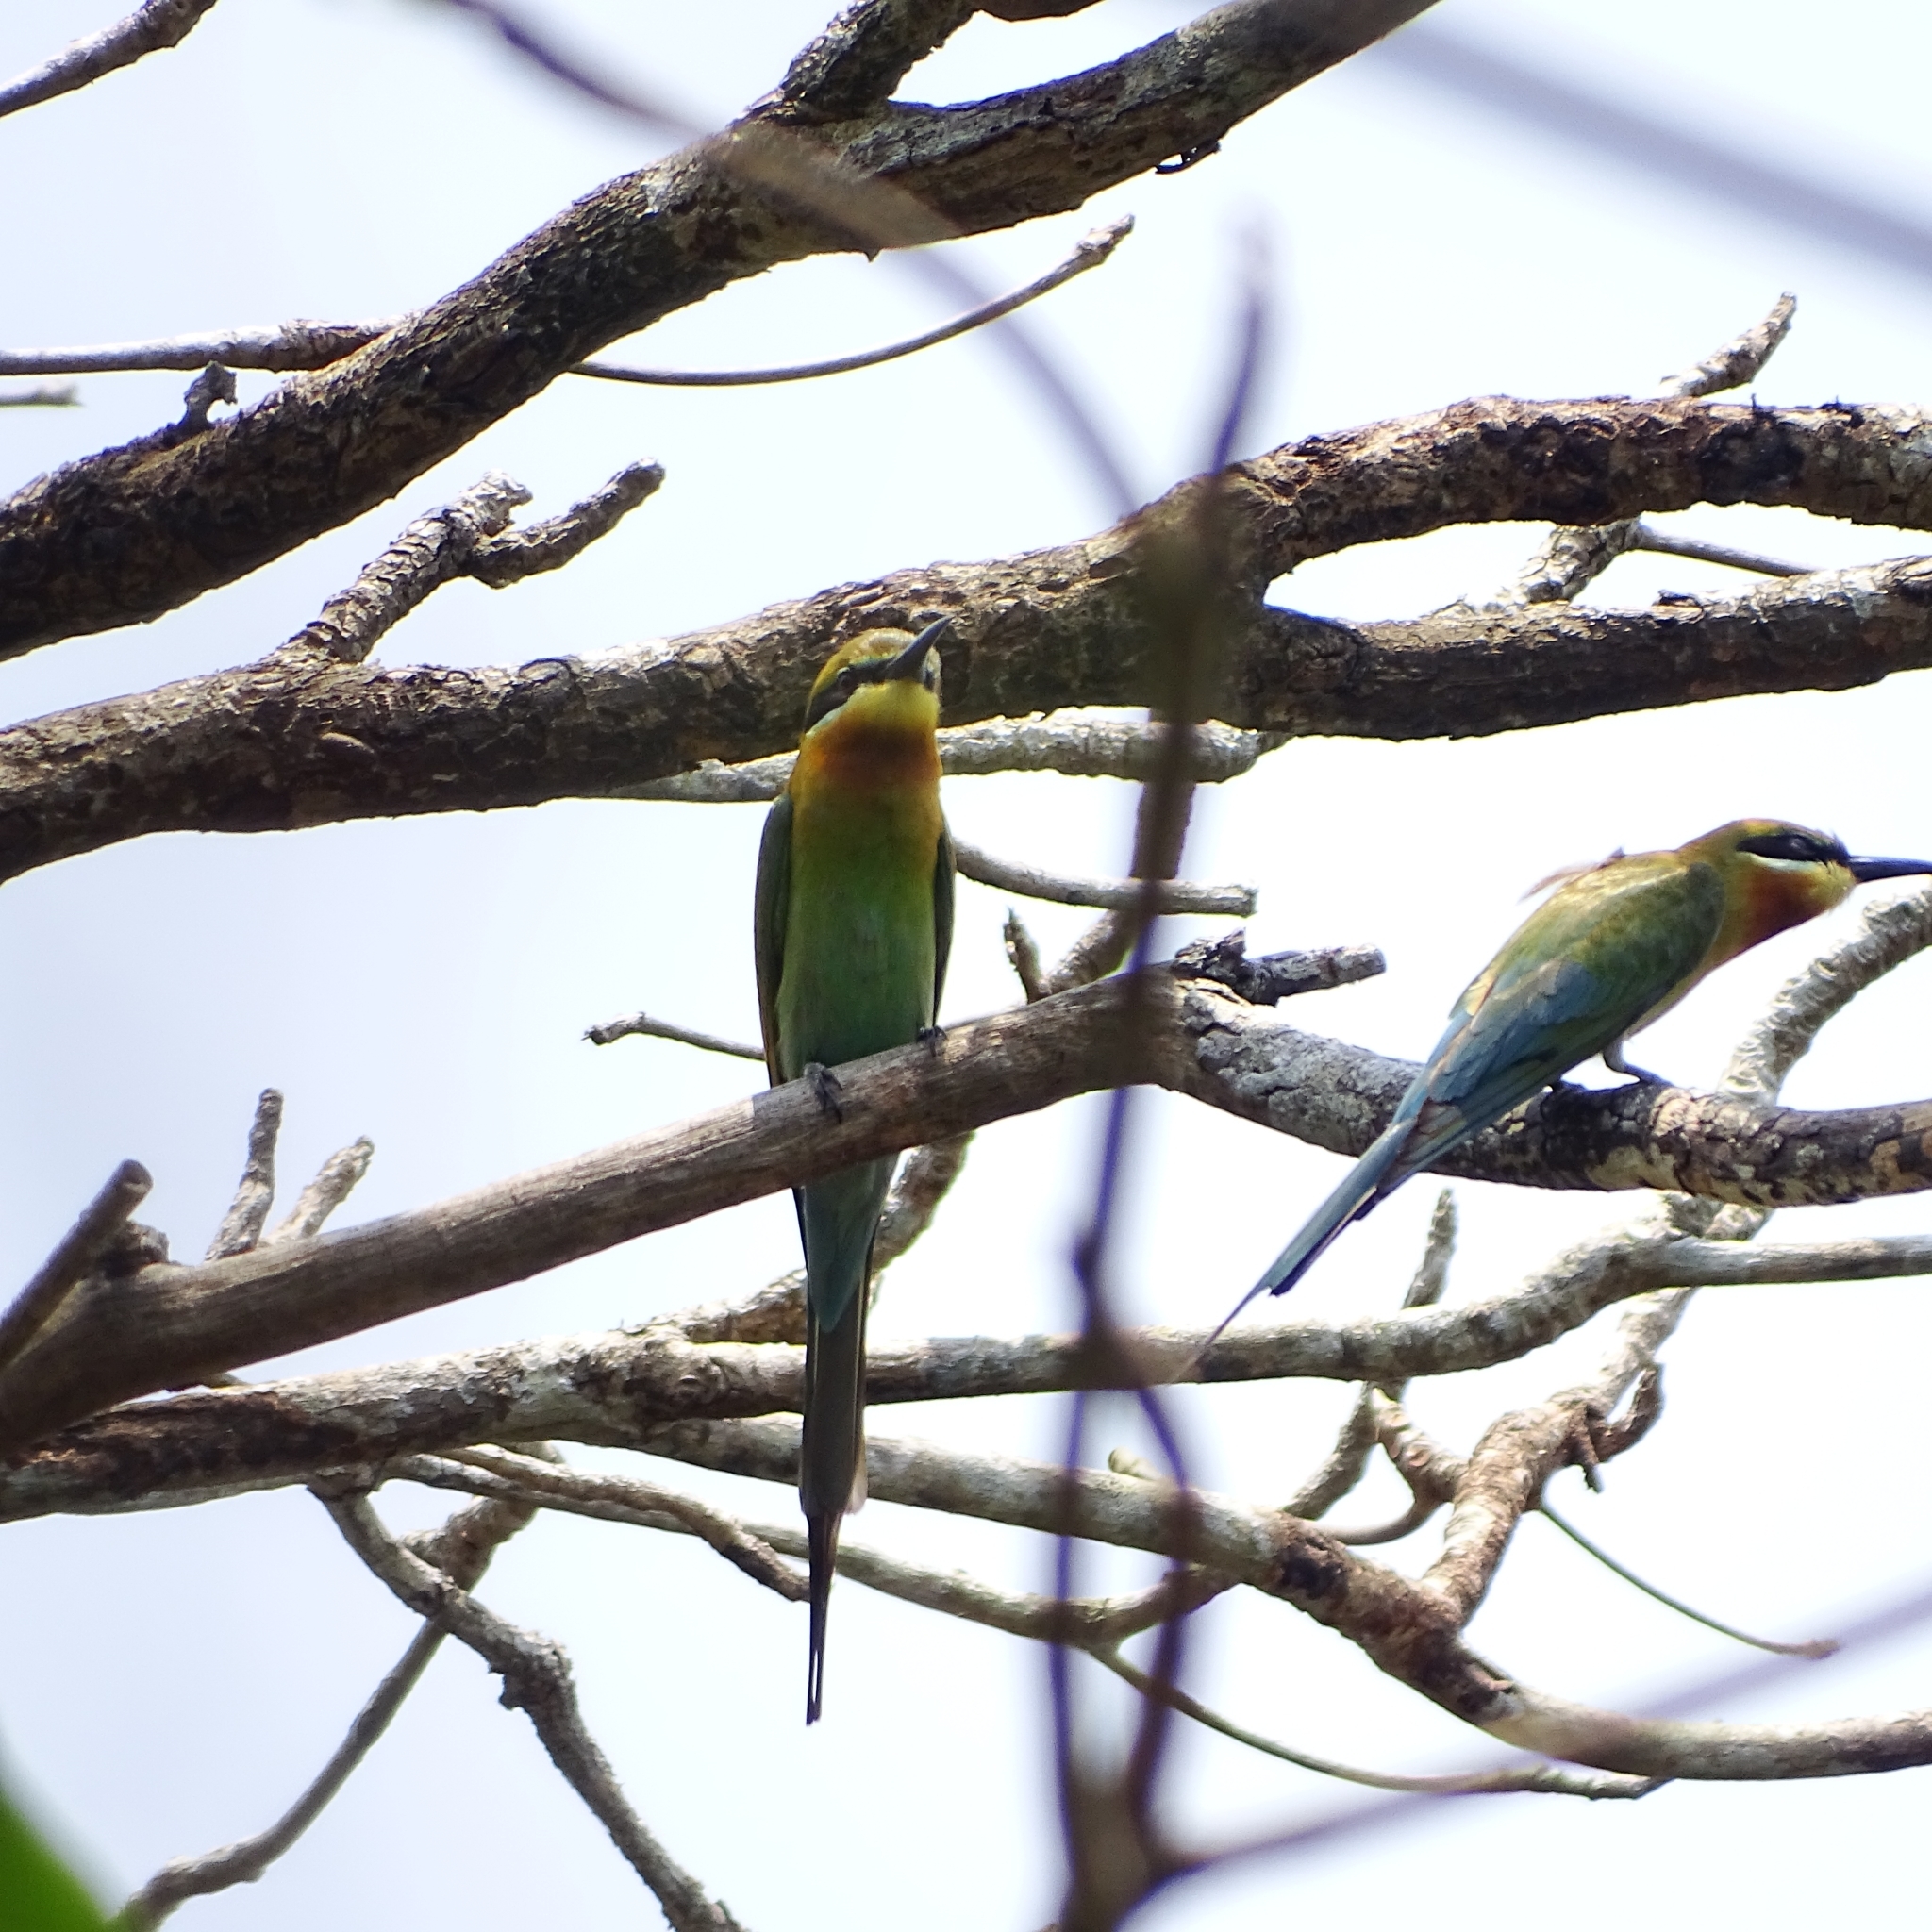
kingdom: Animalia
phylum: Chordata
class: Aves
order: Coraciiformes
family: Meropidae
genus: Merops
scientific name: Merops philippinus
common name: Blue-tailed bee-eater
